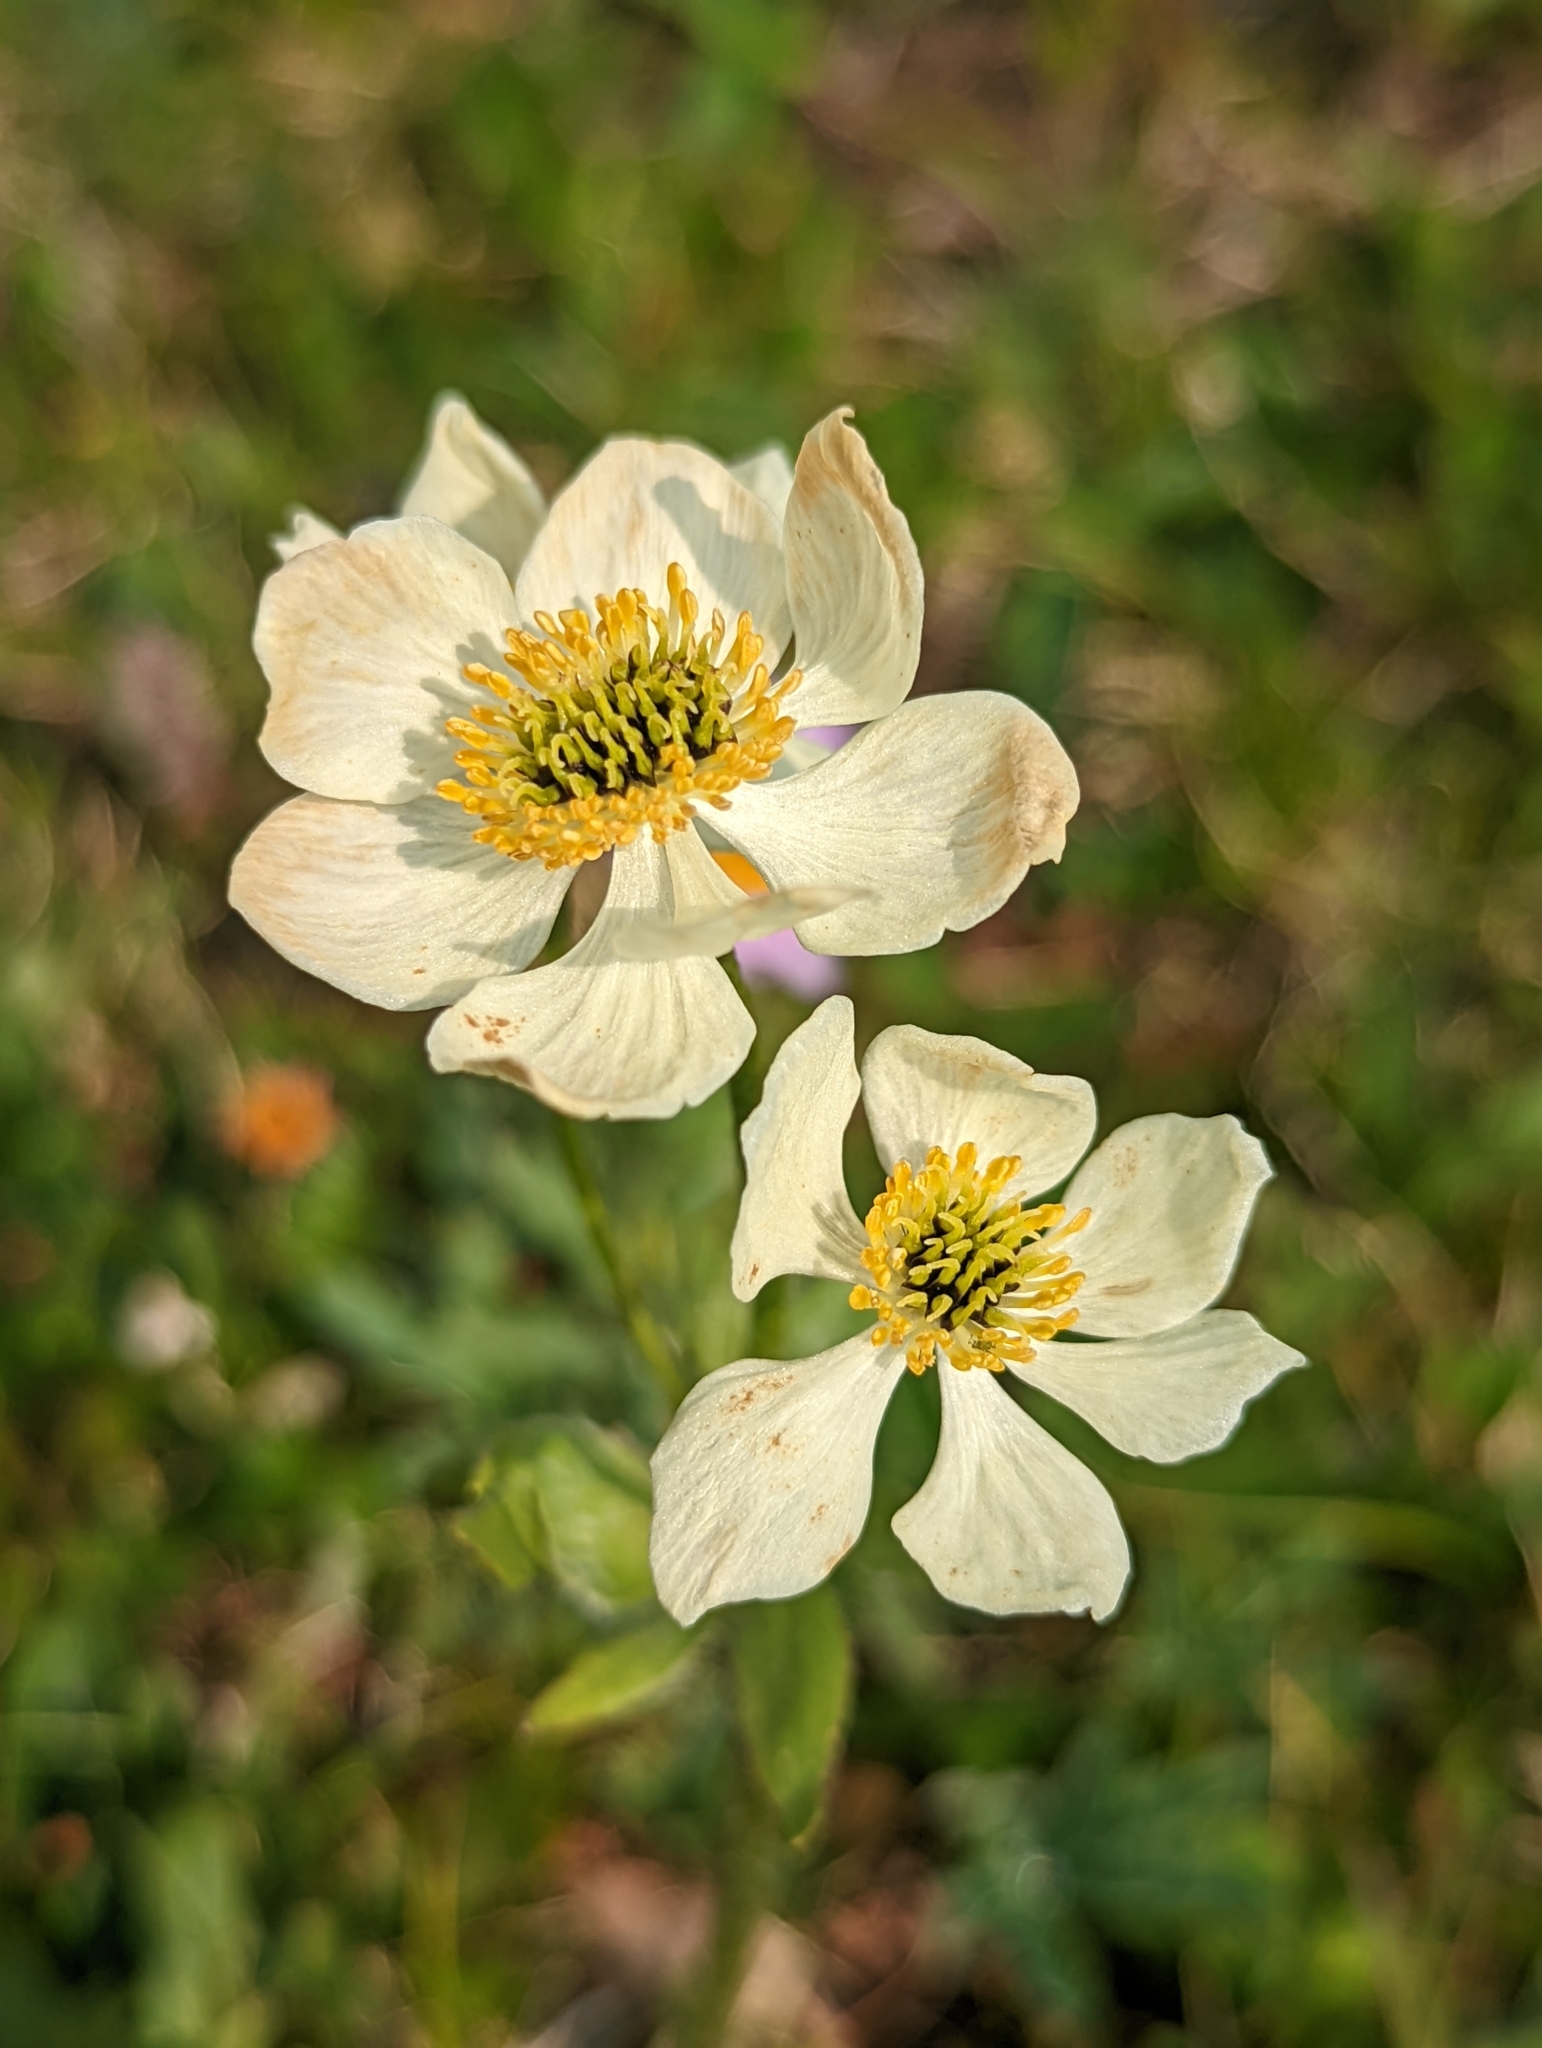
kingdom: Plantae
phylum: Tracheophyta
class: Magnoliopsida
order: Ranunculales
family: Ranunculaceae
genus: Anemonastrum
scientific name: Anemonastrum narcissiflorum
